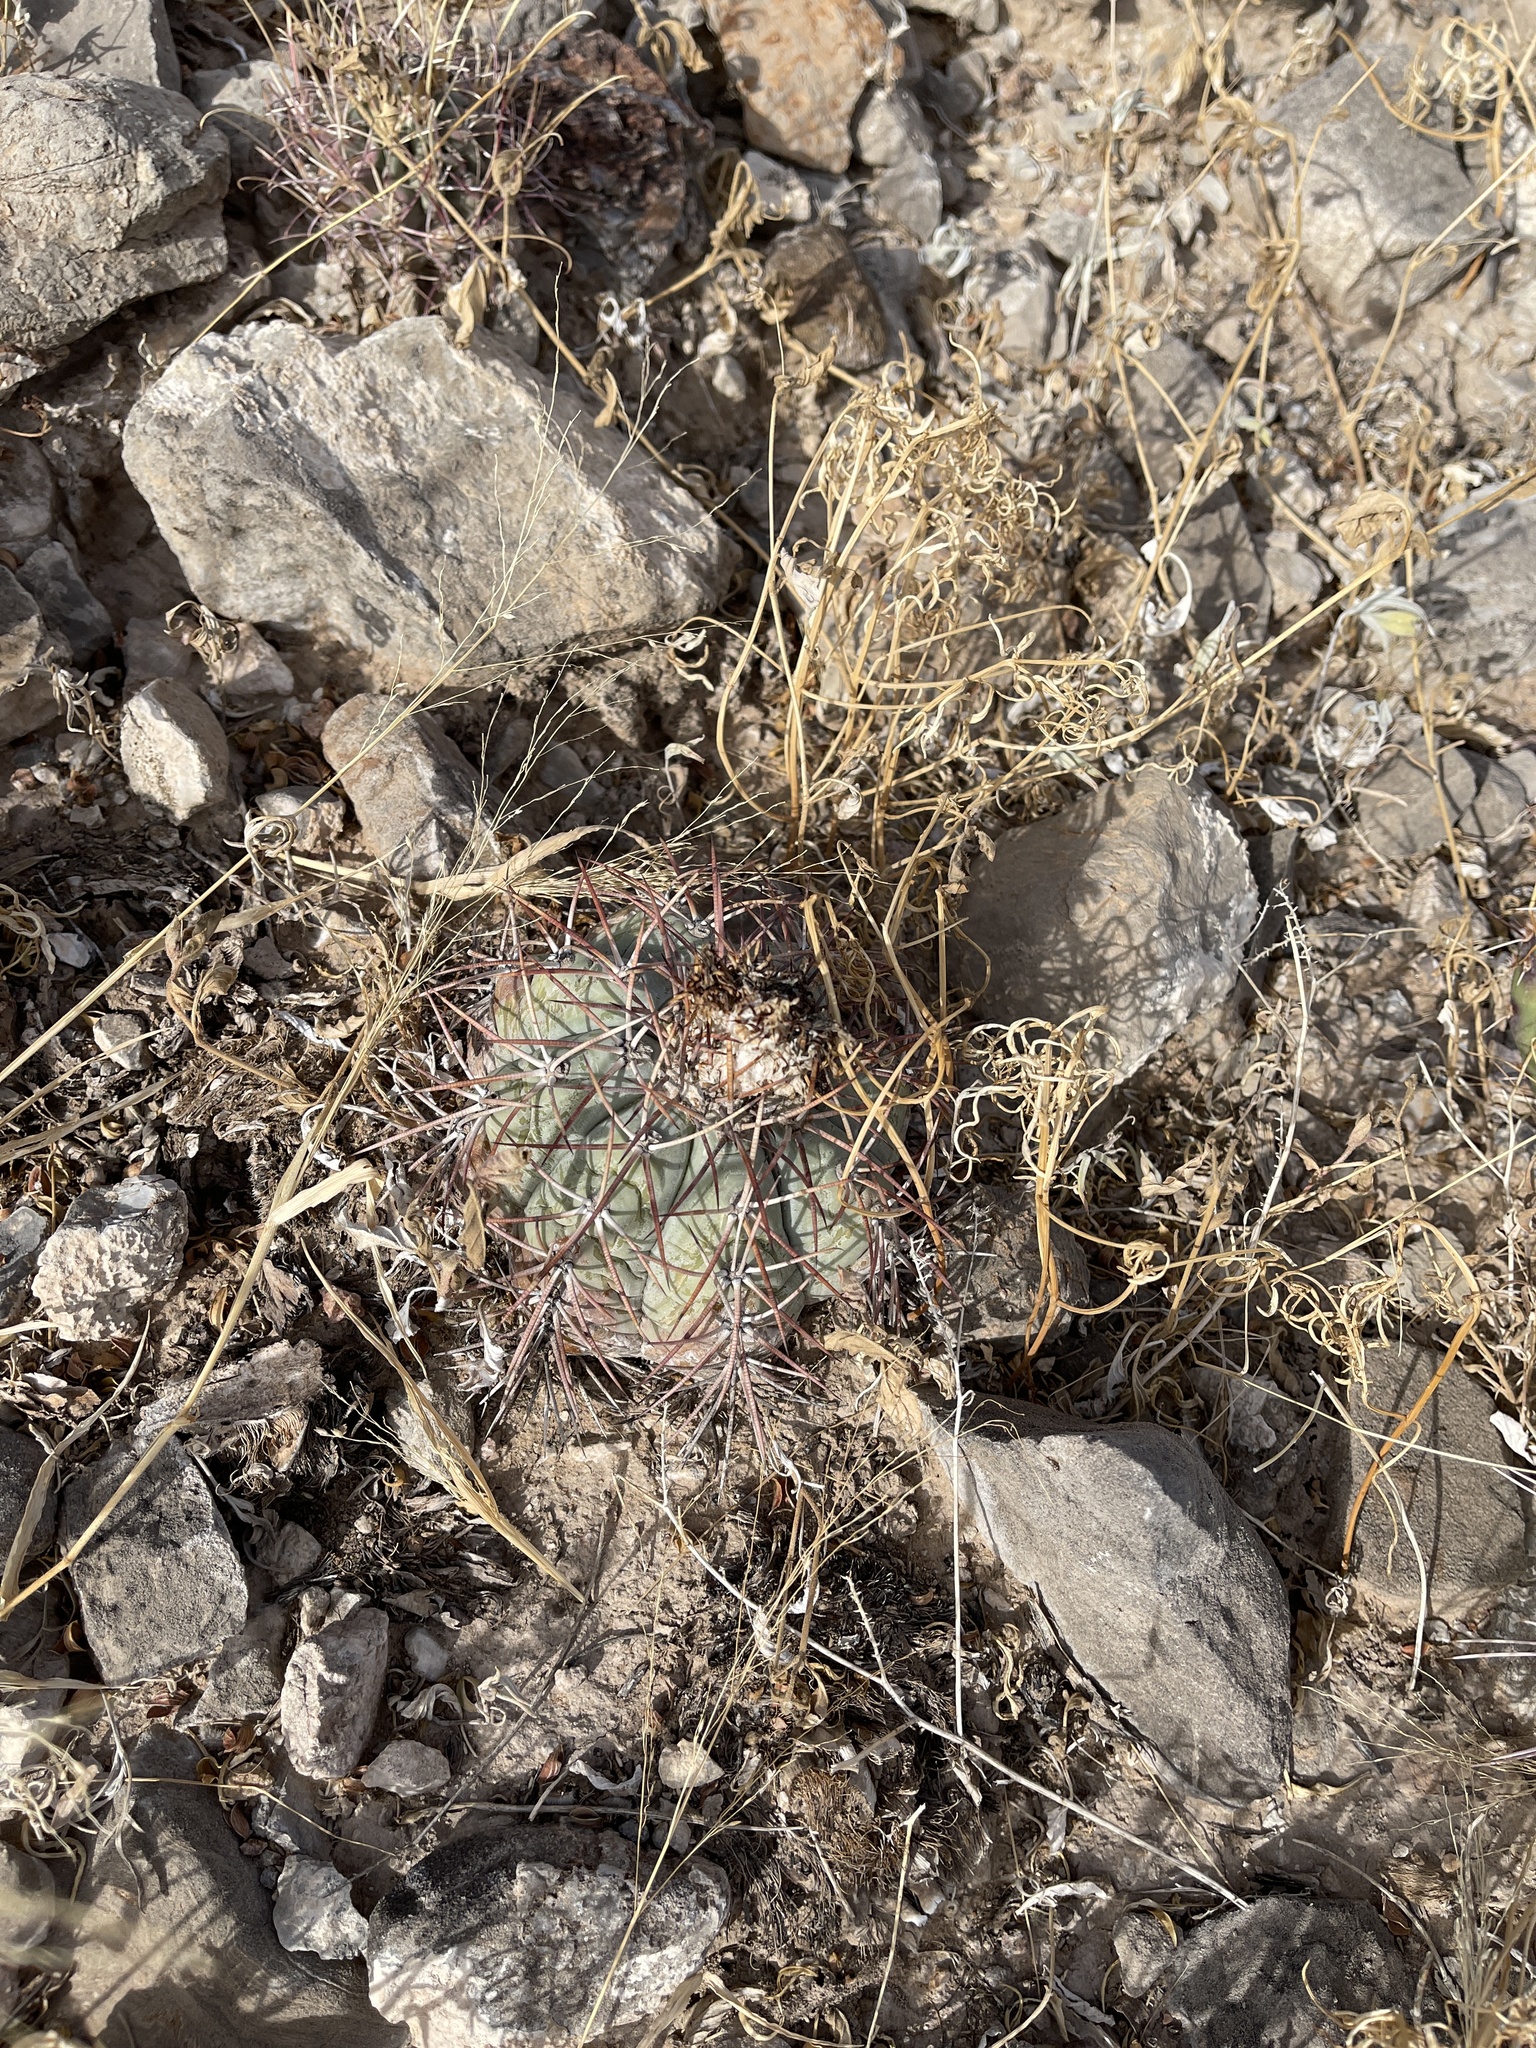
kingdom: Plantae
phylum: Tracheophyta
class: Magnoliopsida
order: Caryophyllales
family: Cactaceae
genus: Echinocactus
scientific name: Echinocactus horizonthalonius
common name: Devilshead
